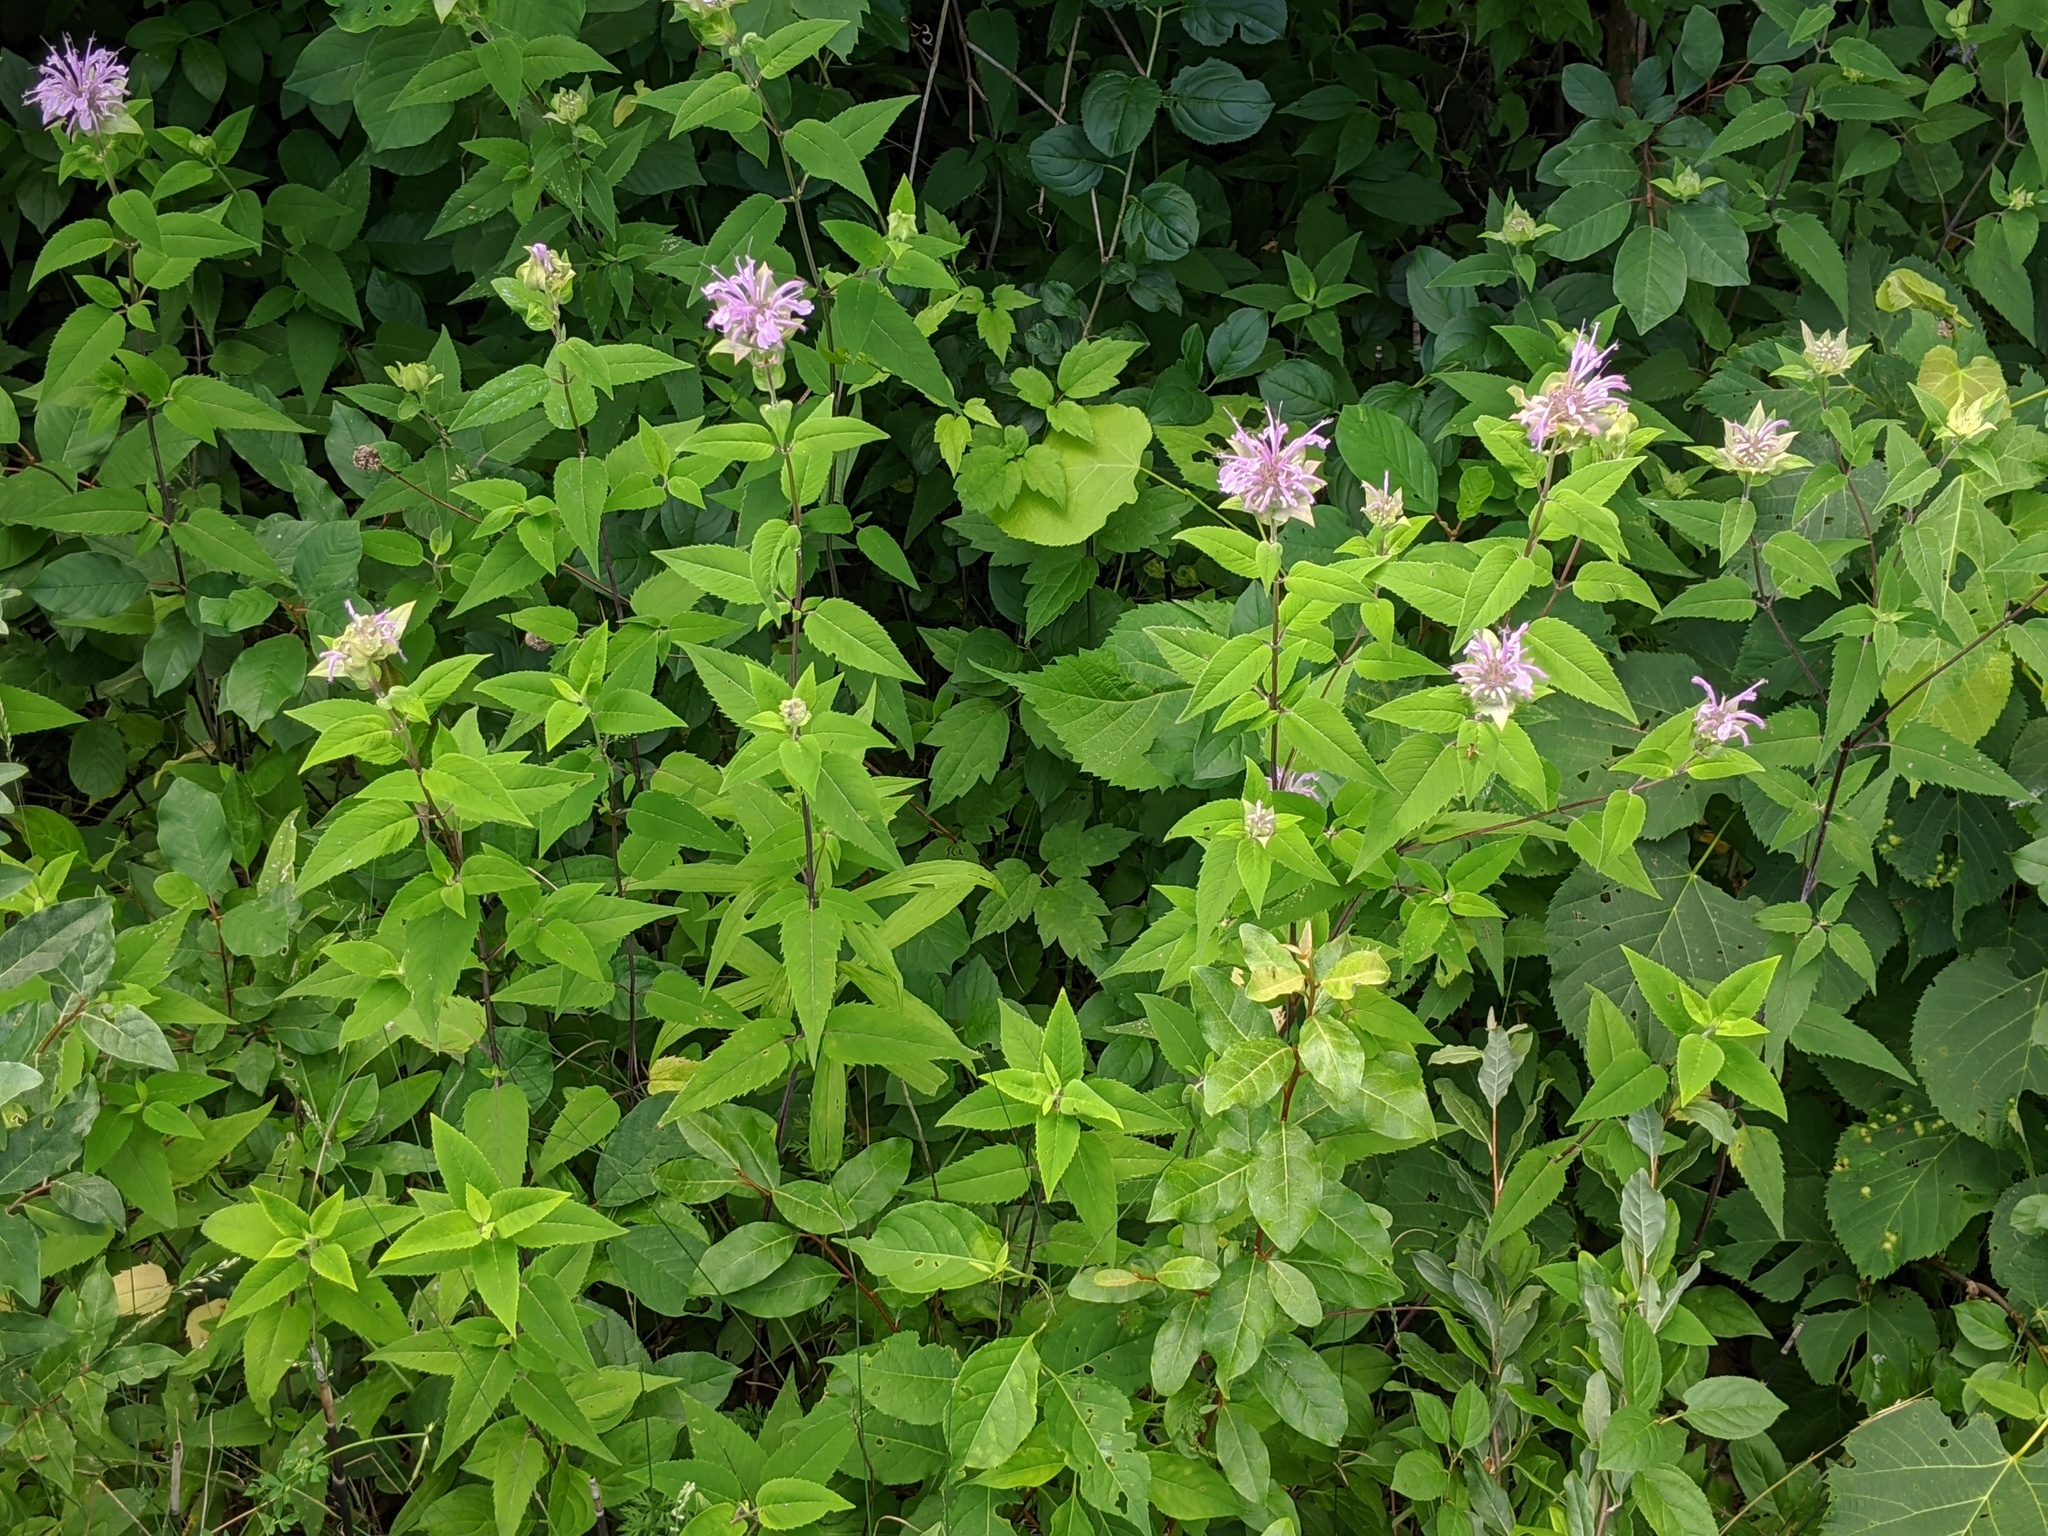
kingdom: Plantae
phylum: Tracheophyta
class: Magnoliopsida
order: Lamiales
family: Lamiaceae
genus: Monarda
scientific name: Monarda fistulosa
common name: Purple beebalm
